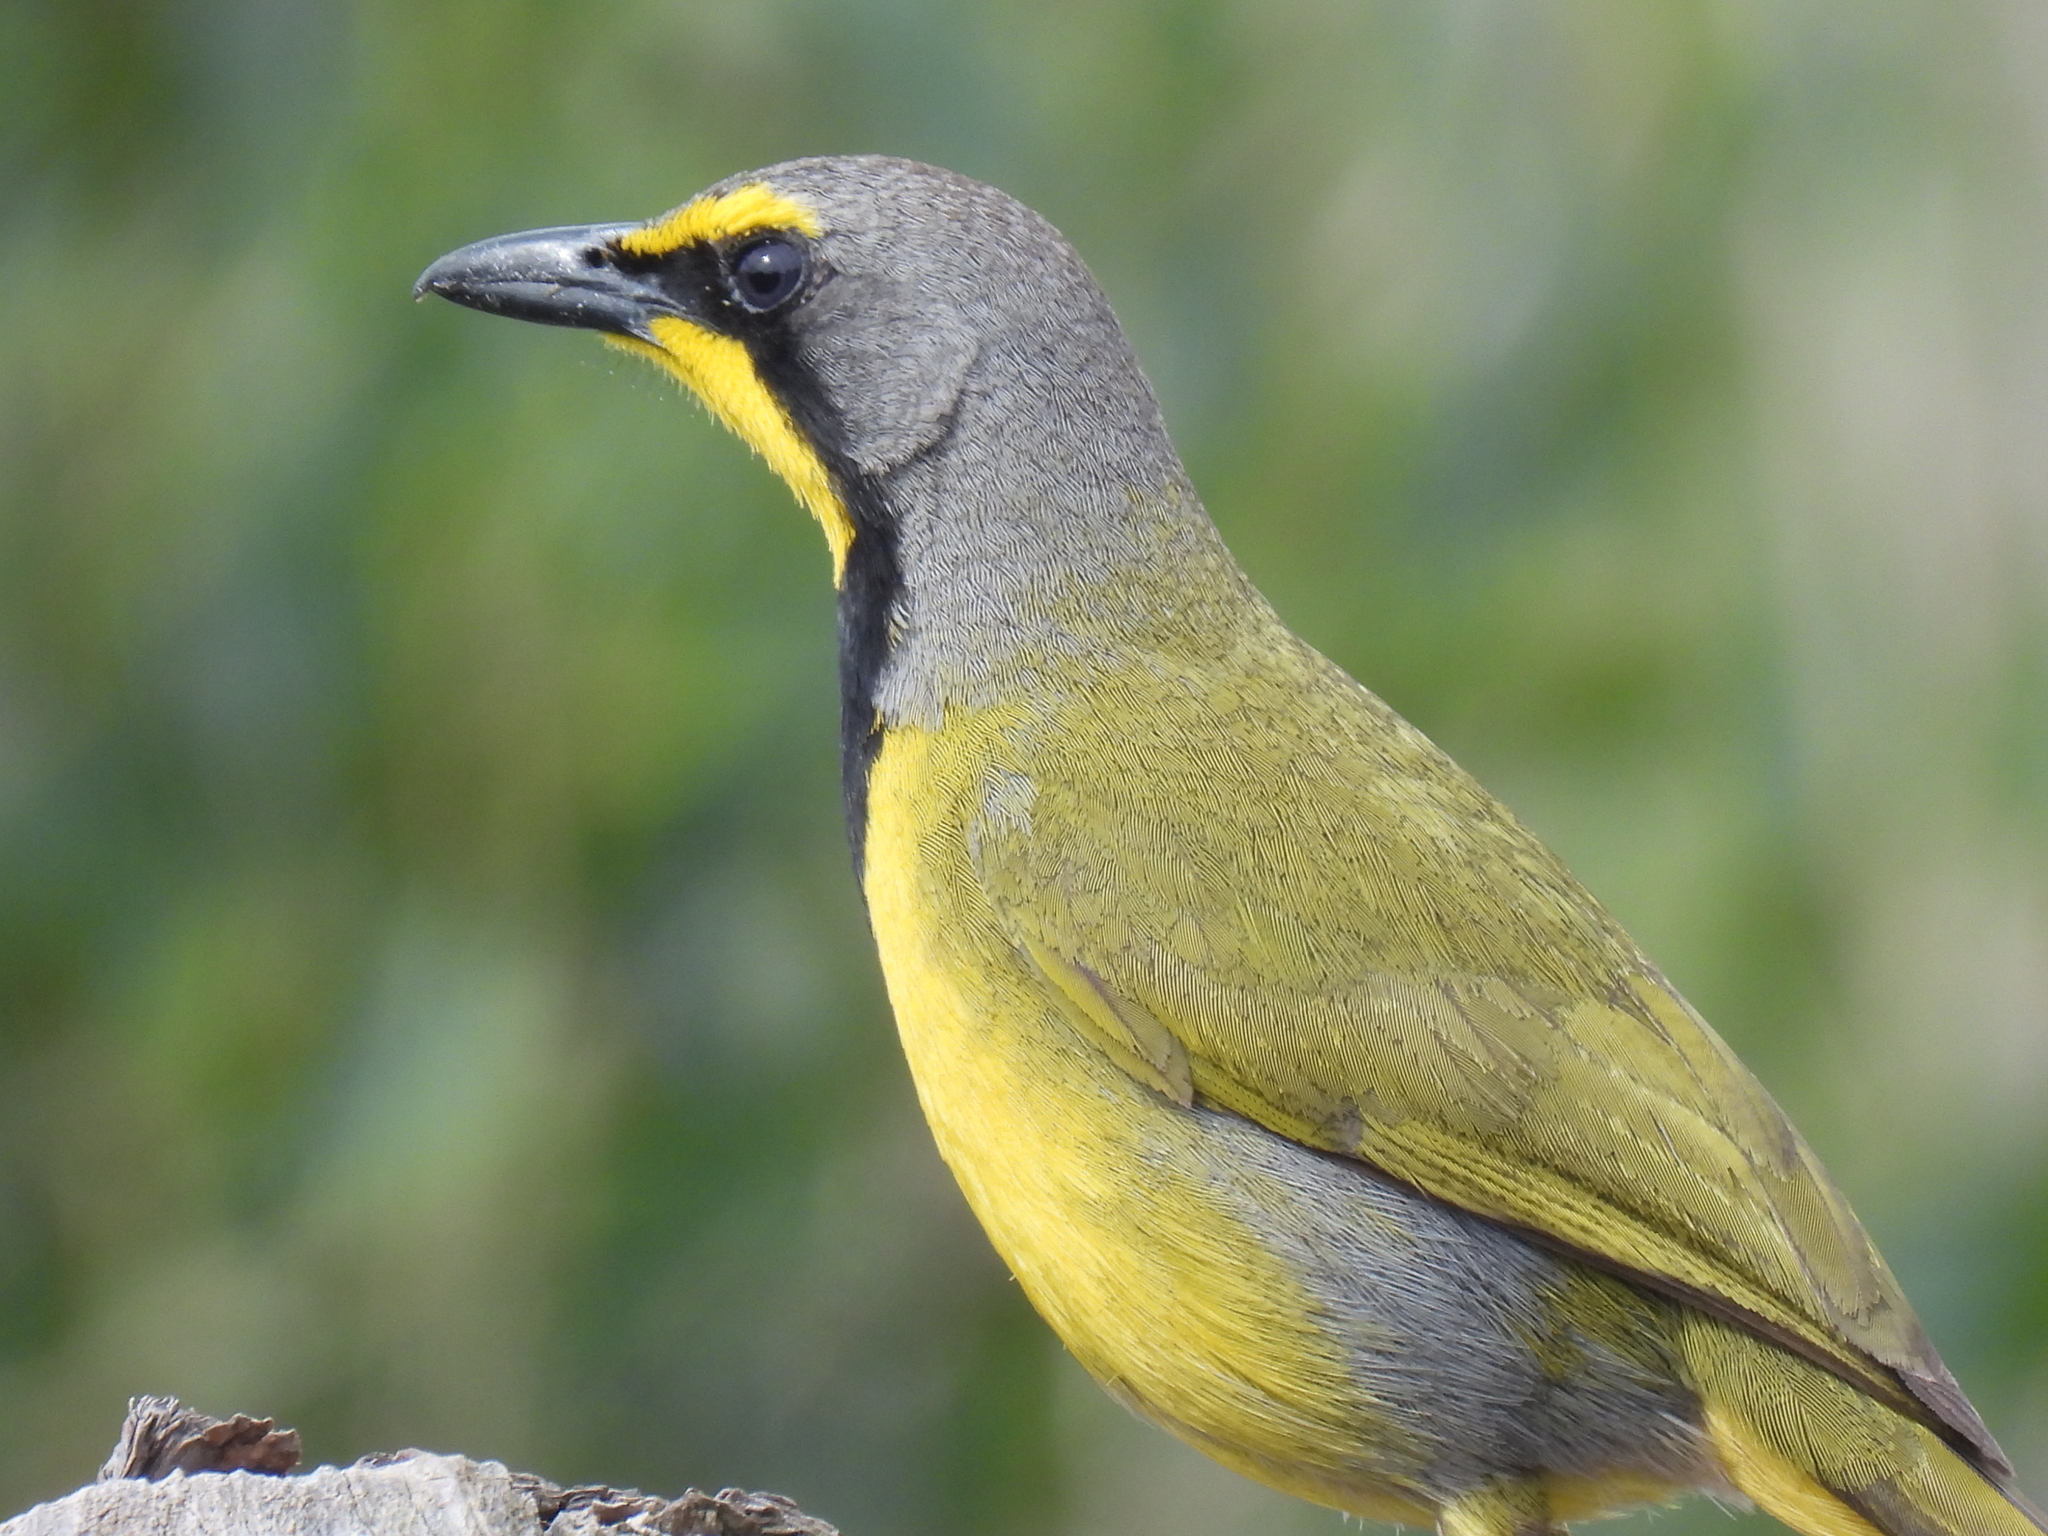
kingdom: Animalia
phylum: Chordata
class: Aves
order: Passeriformes
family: Malaconotidae
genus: Telophorus
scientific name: Telophorus zeylonus
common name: Bokmakierie
